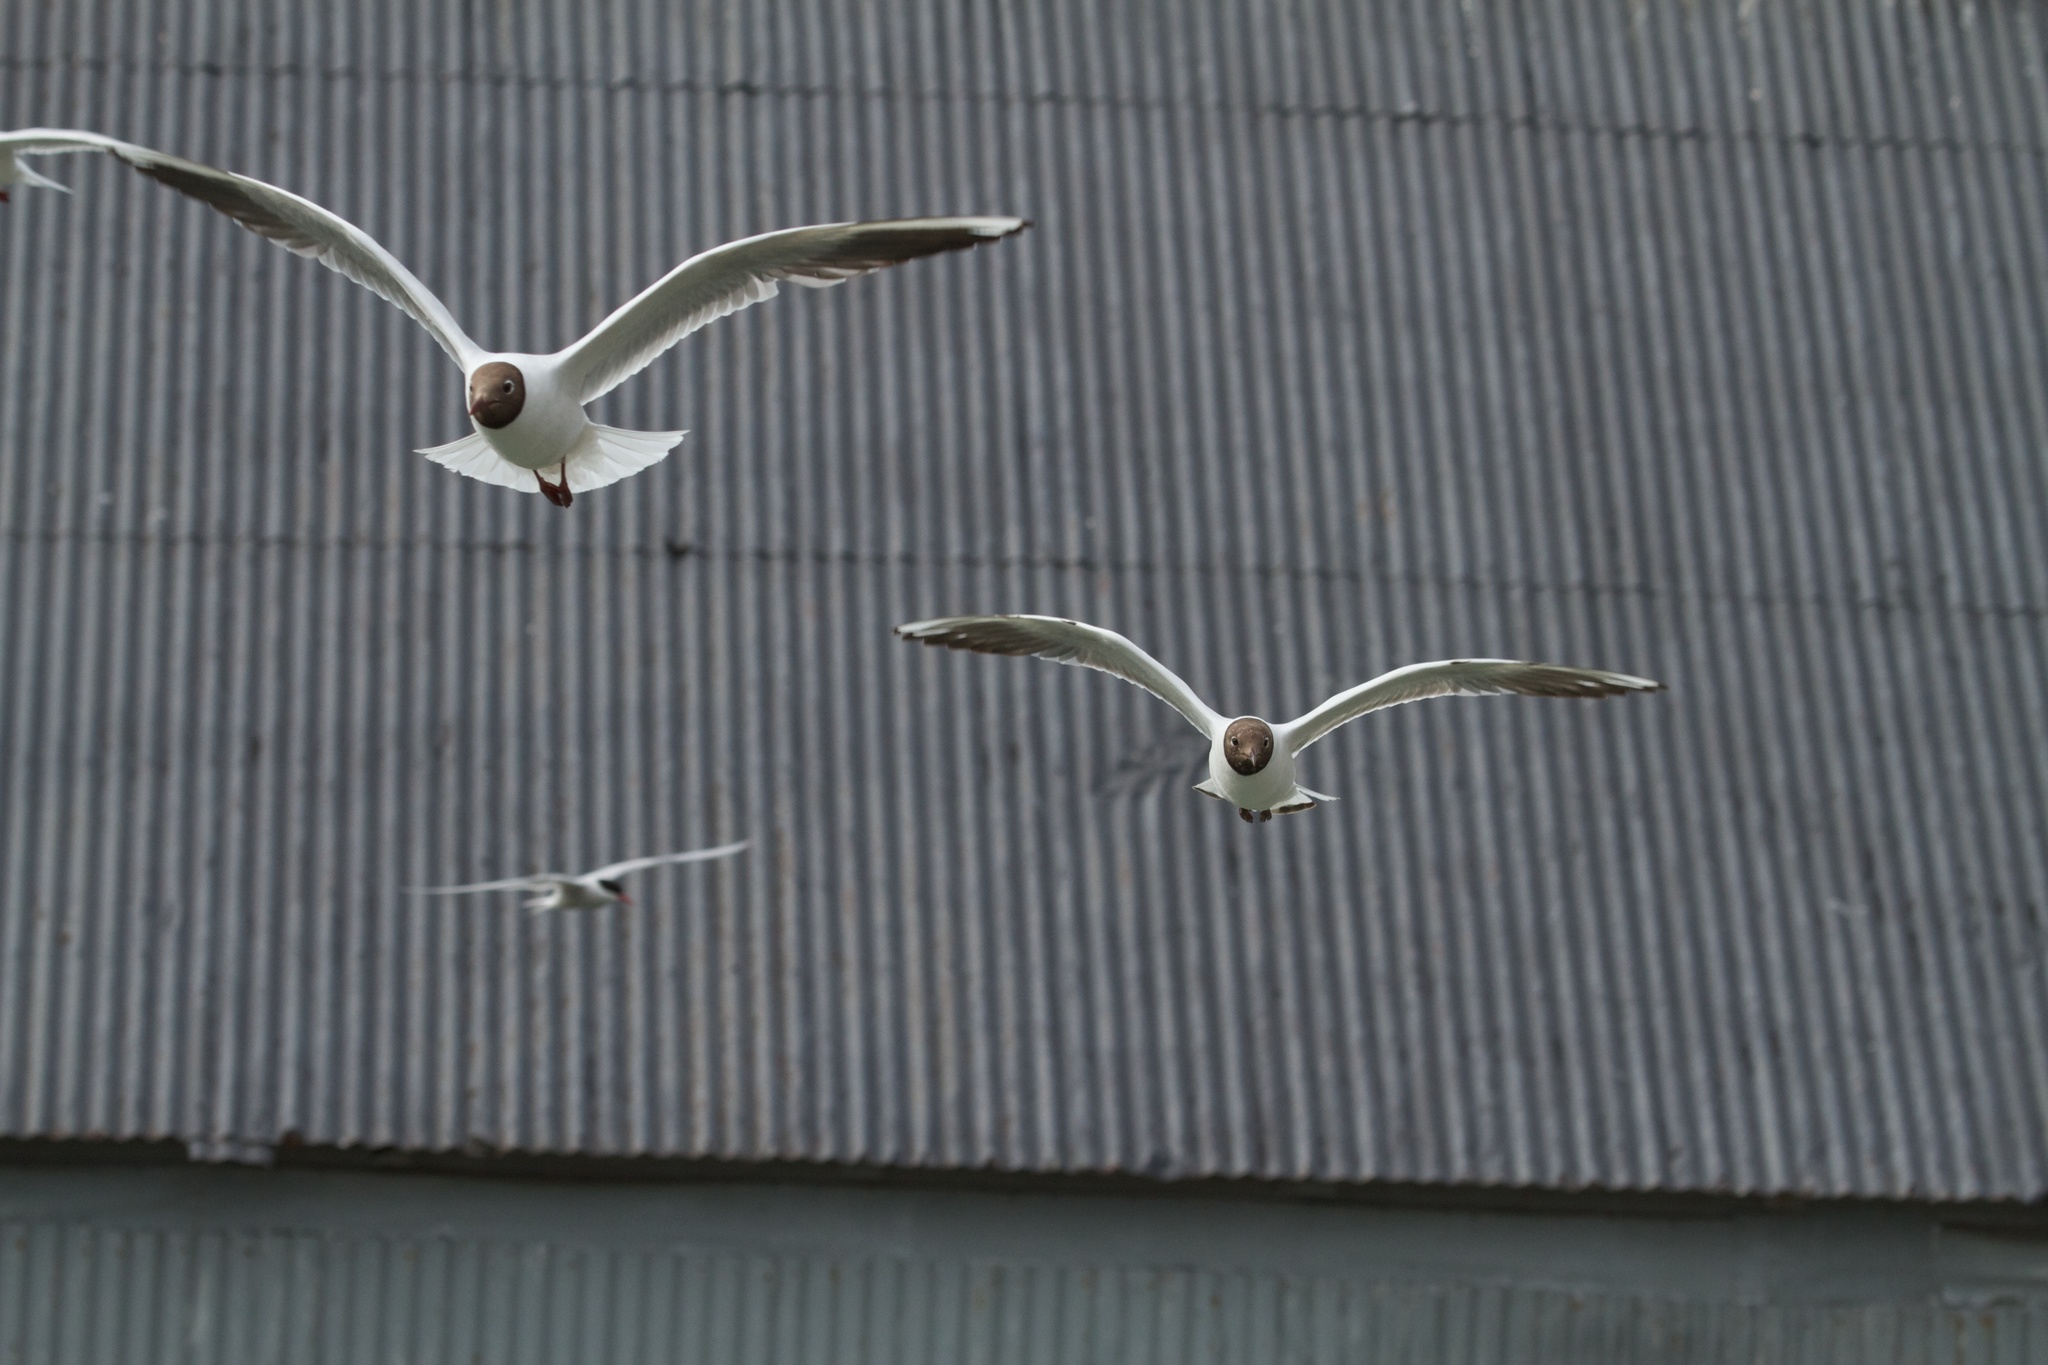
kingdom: Animalia
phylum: Chordata
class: Aves
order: Charadriiformes
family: Laridae
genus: Chroicocephalus
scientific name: Chroicocephalus ridibundus
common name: Black-headed gull
